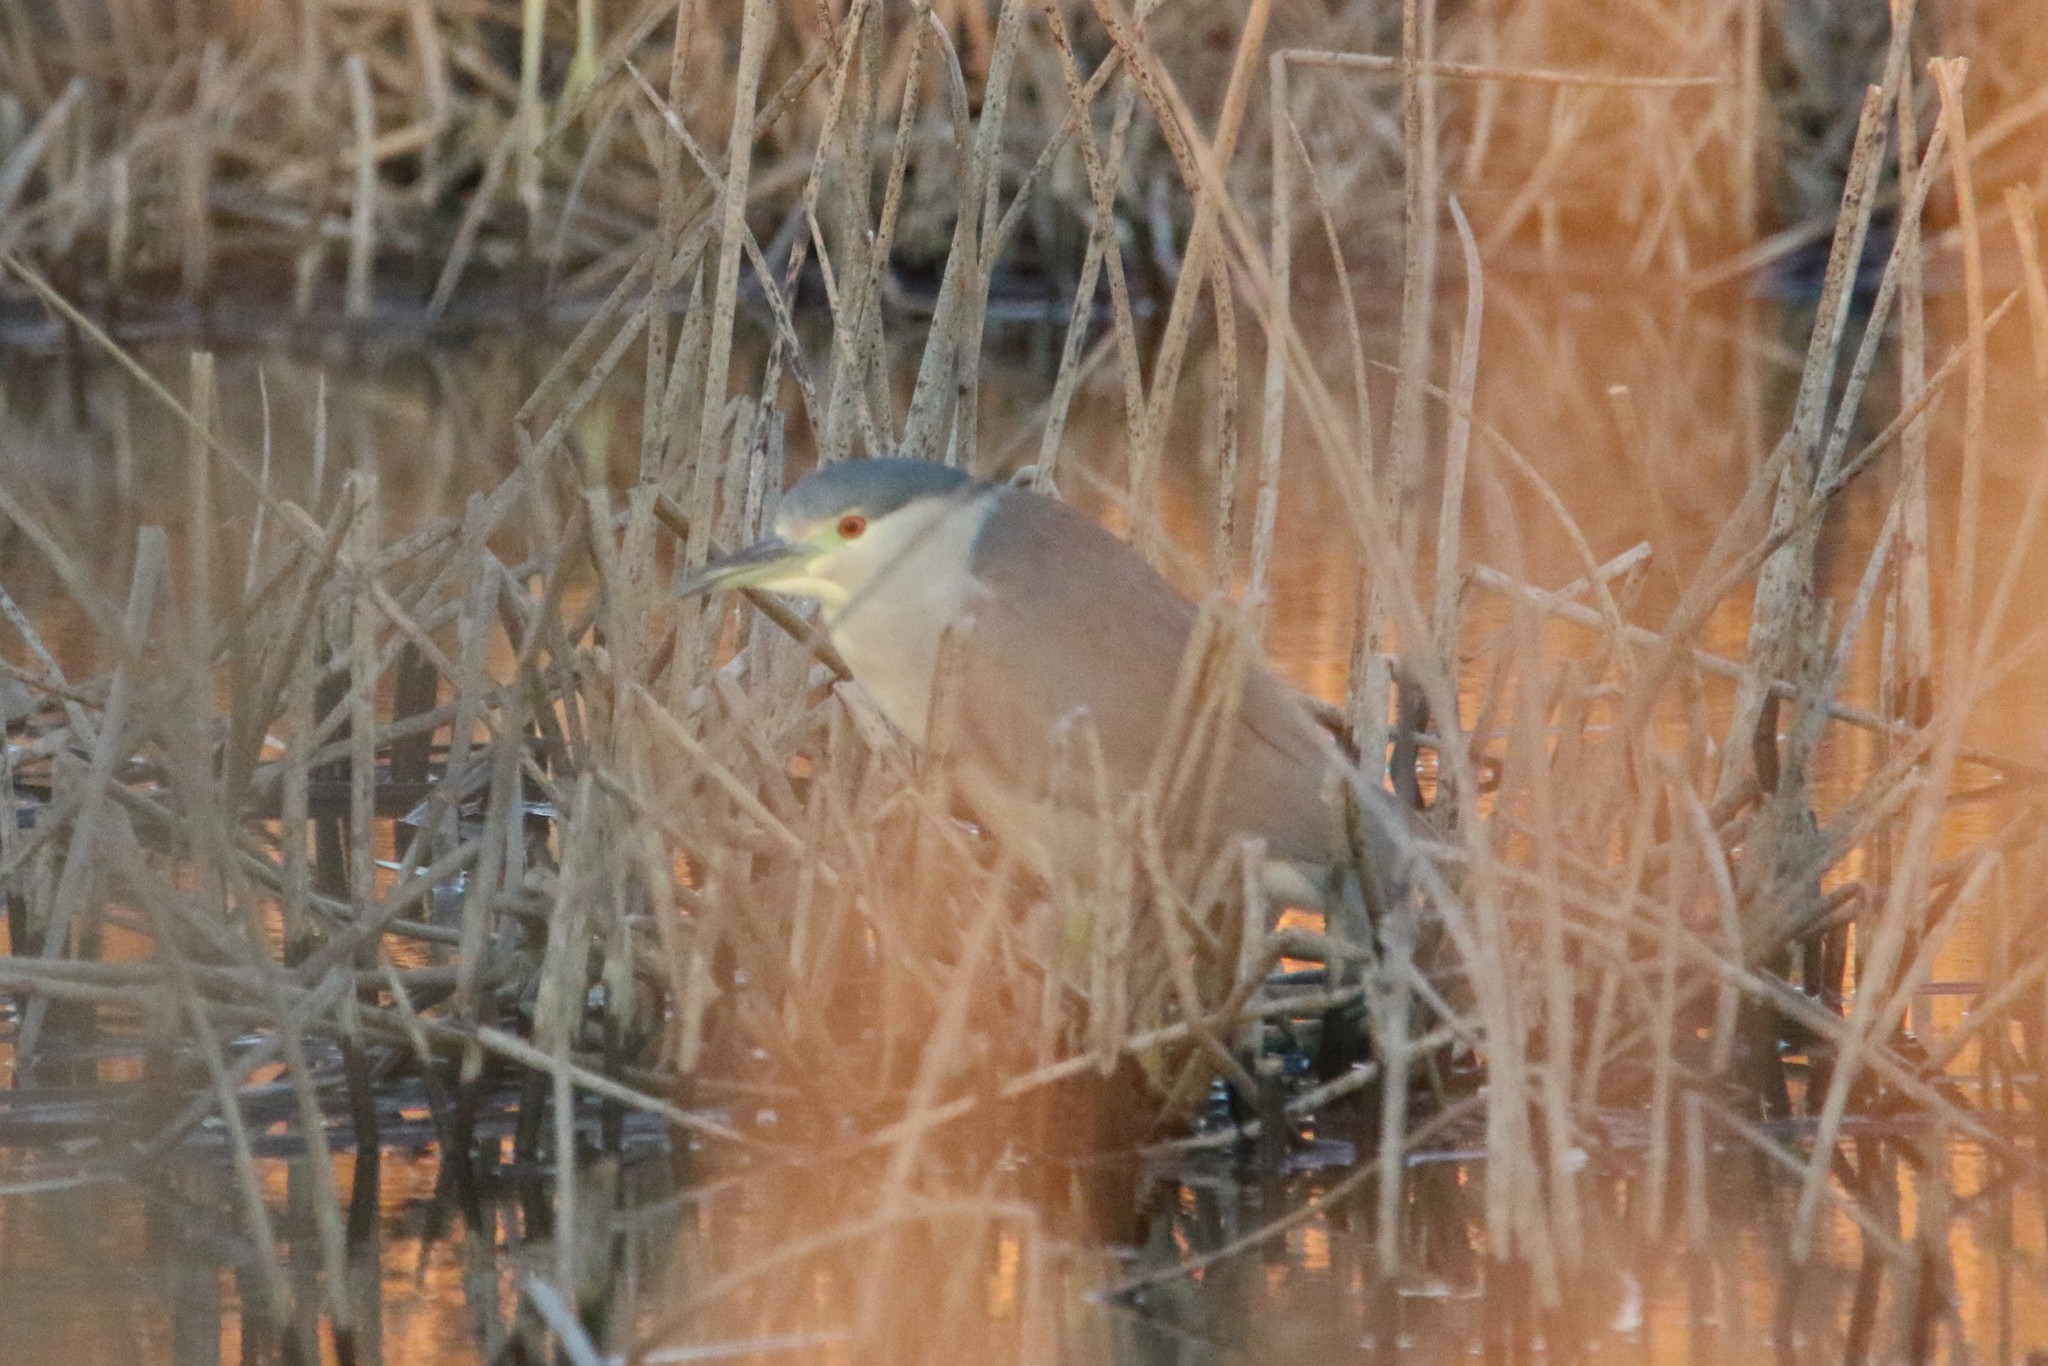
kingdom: Animalia
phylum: Chordata
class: Aves
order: Pelecaniformes
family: Ardeidae
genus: Nycticorax
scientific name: Nycticorax nycticorax
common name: Black-crowned night heron
